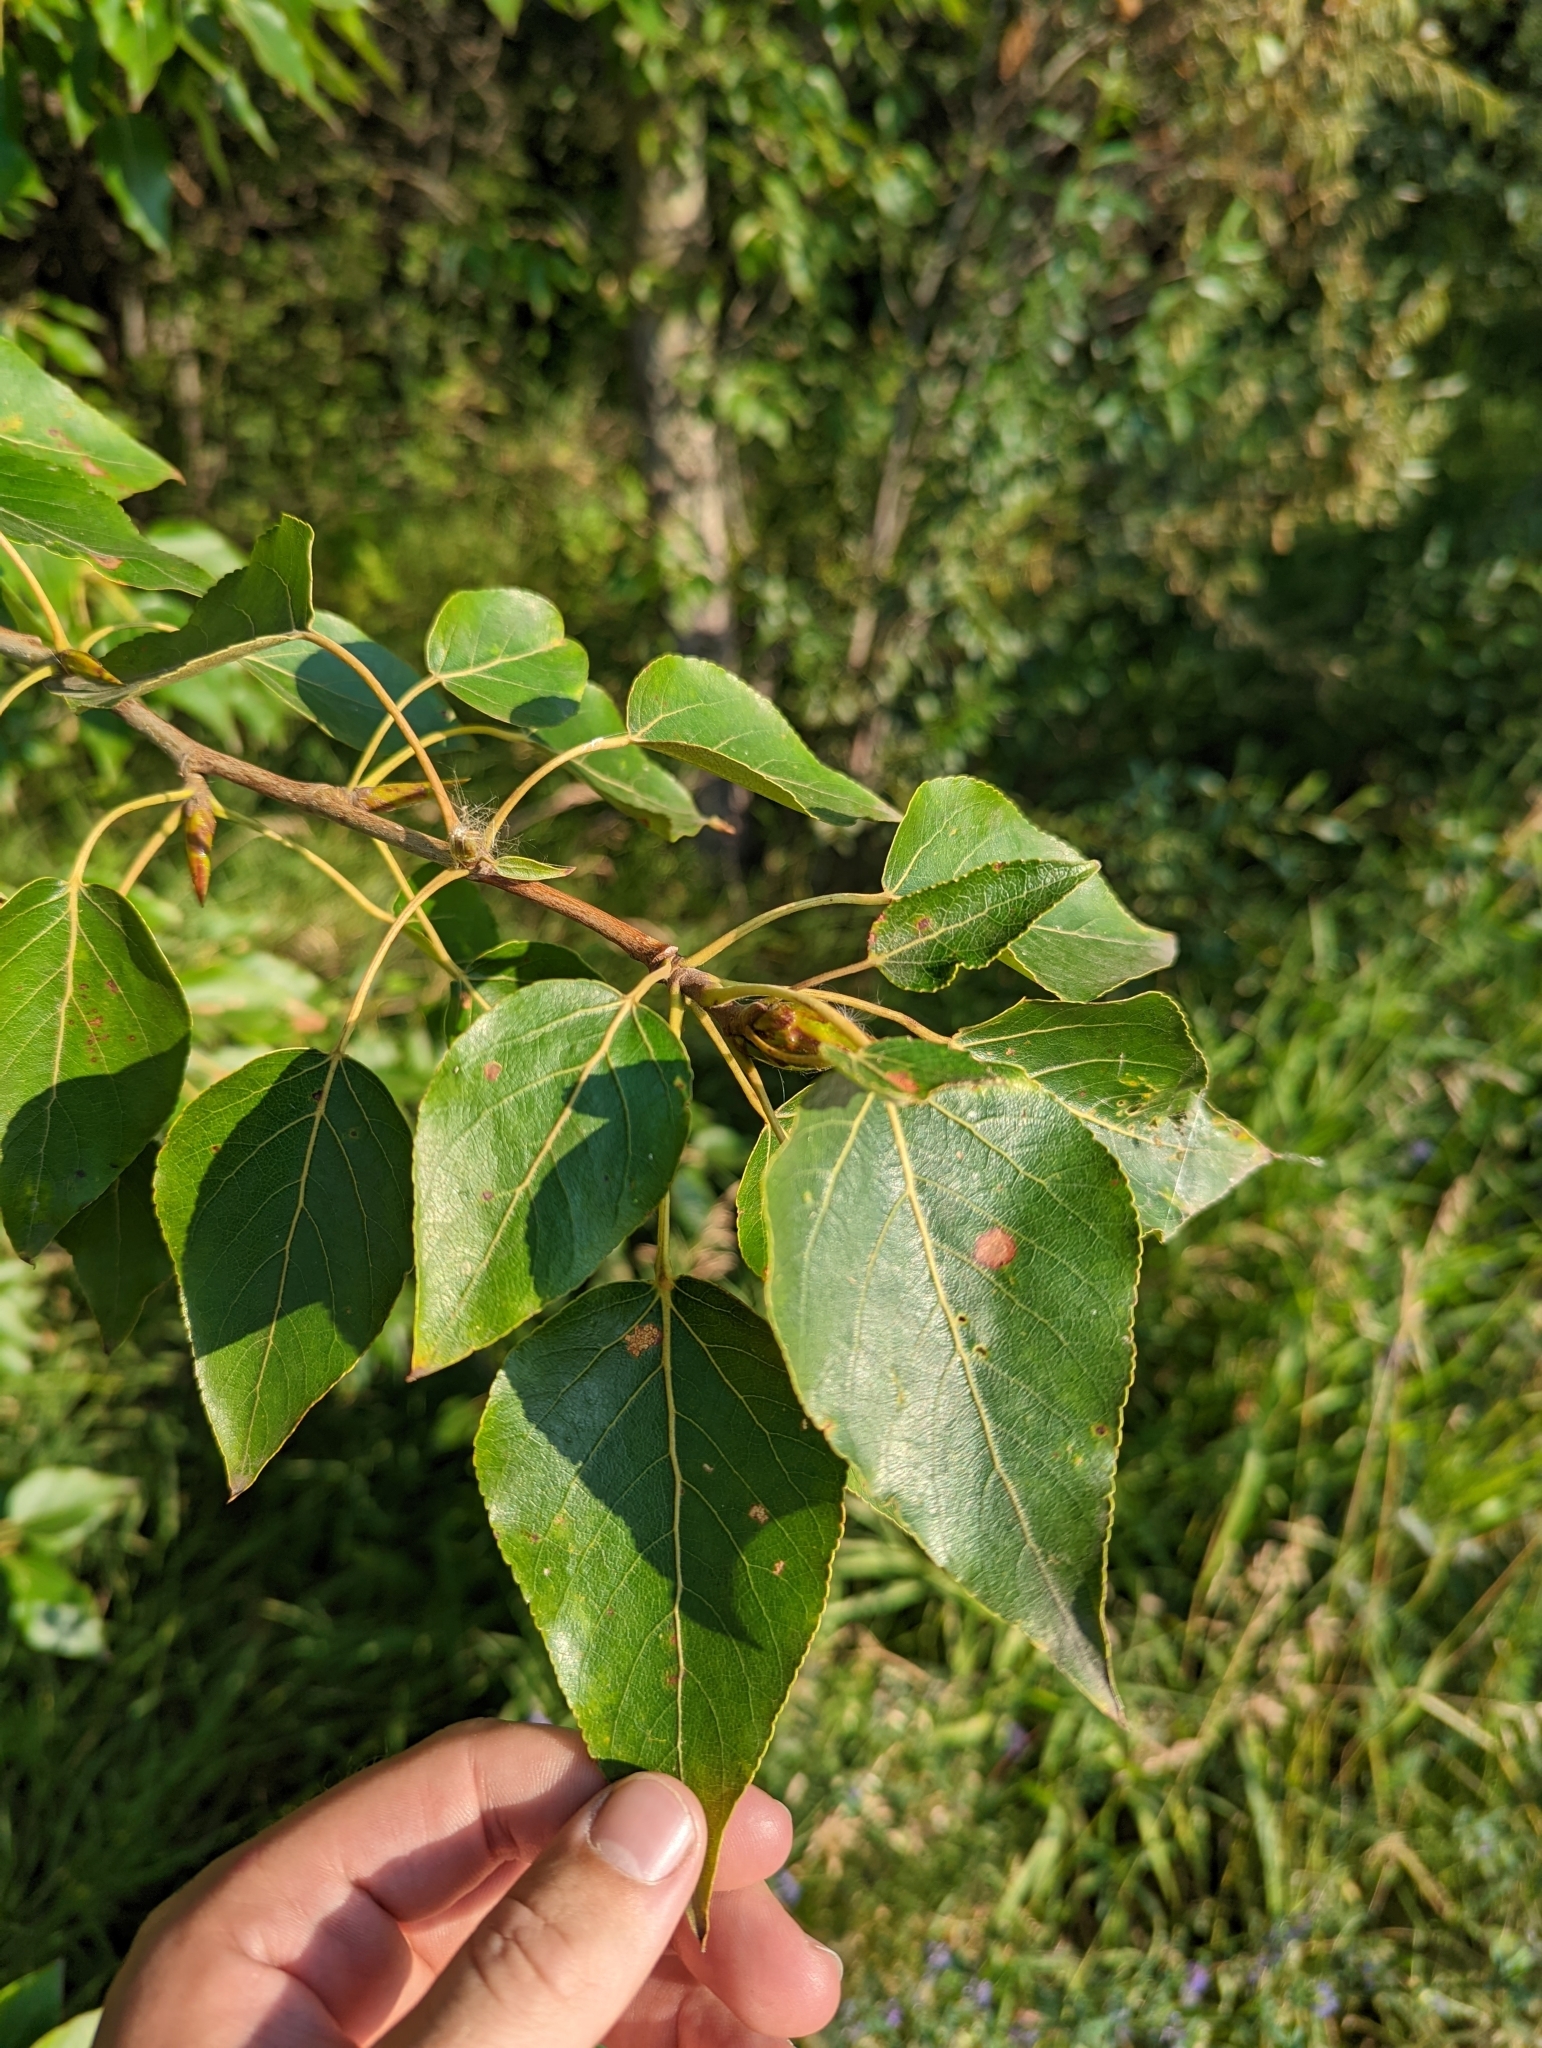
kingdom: Plantae
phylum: Tracheophyta
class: Magnoliopsida
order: Malpighiales
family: Salicaceae
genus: Populus
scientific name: Populus balsamifera
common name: Balsam poplar
